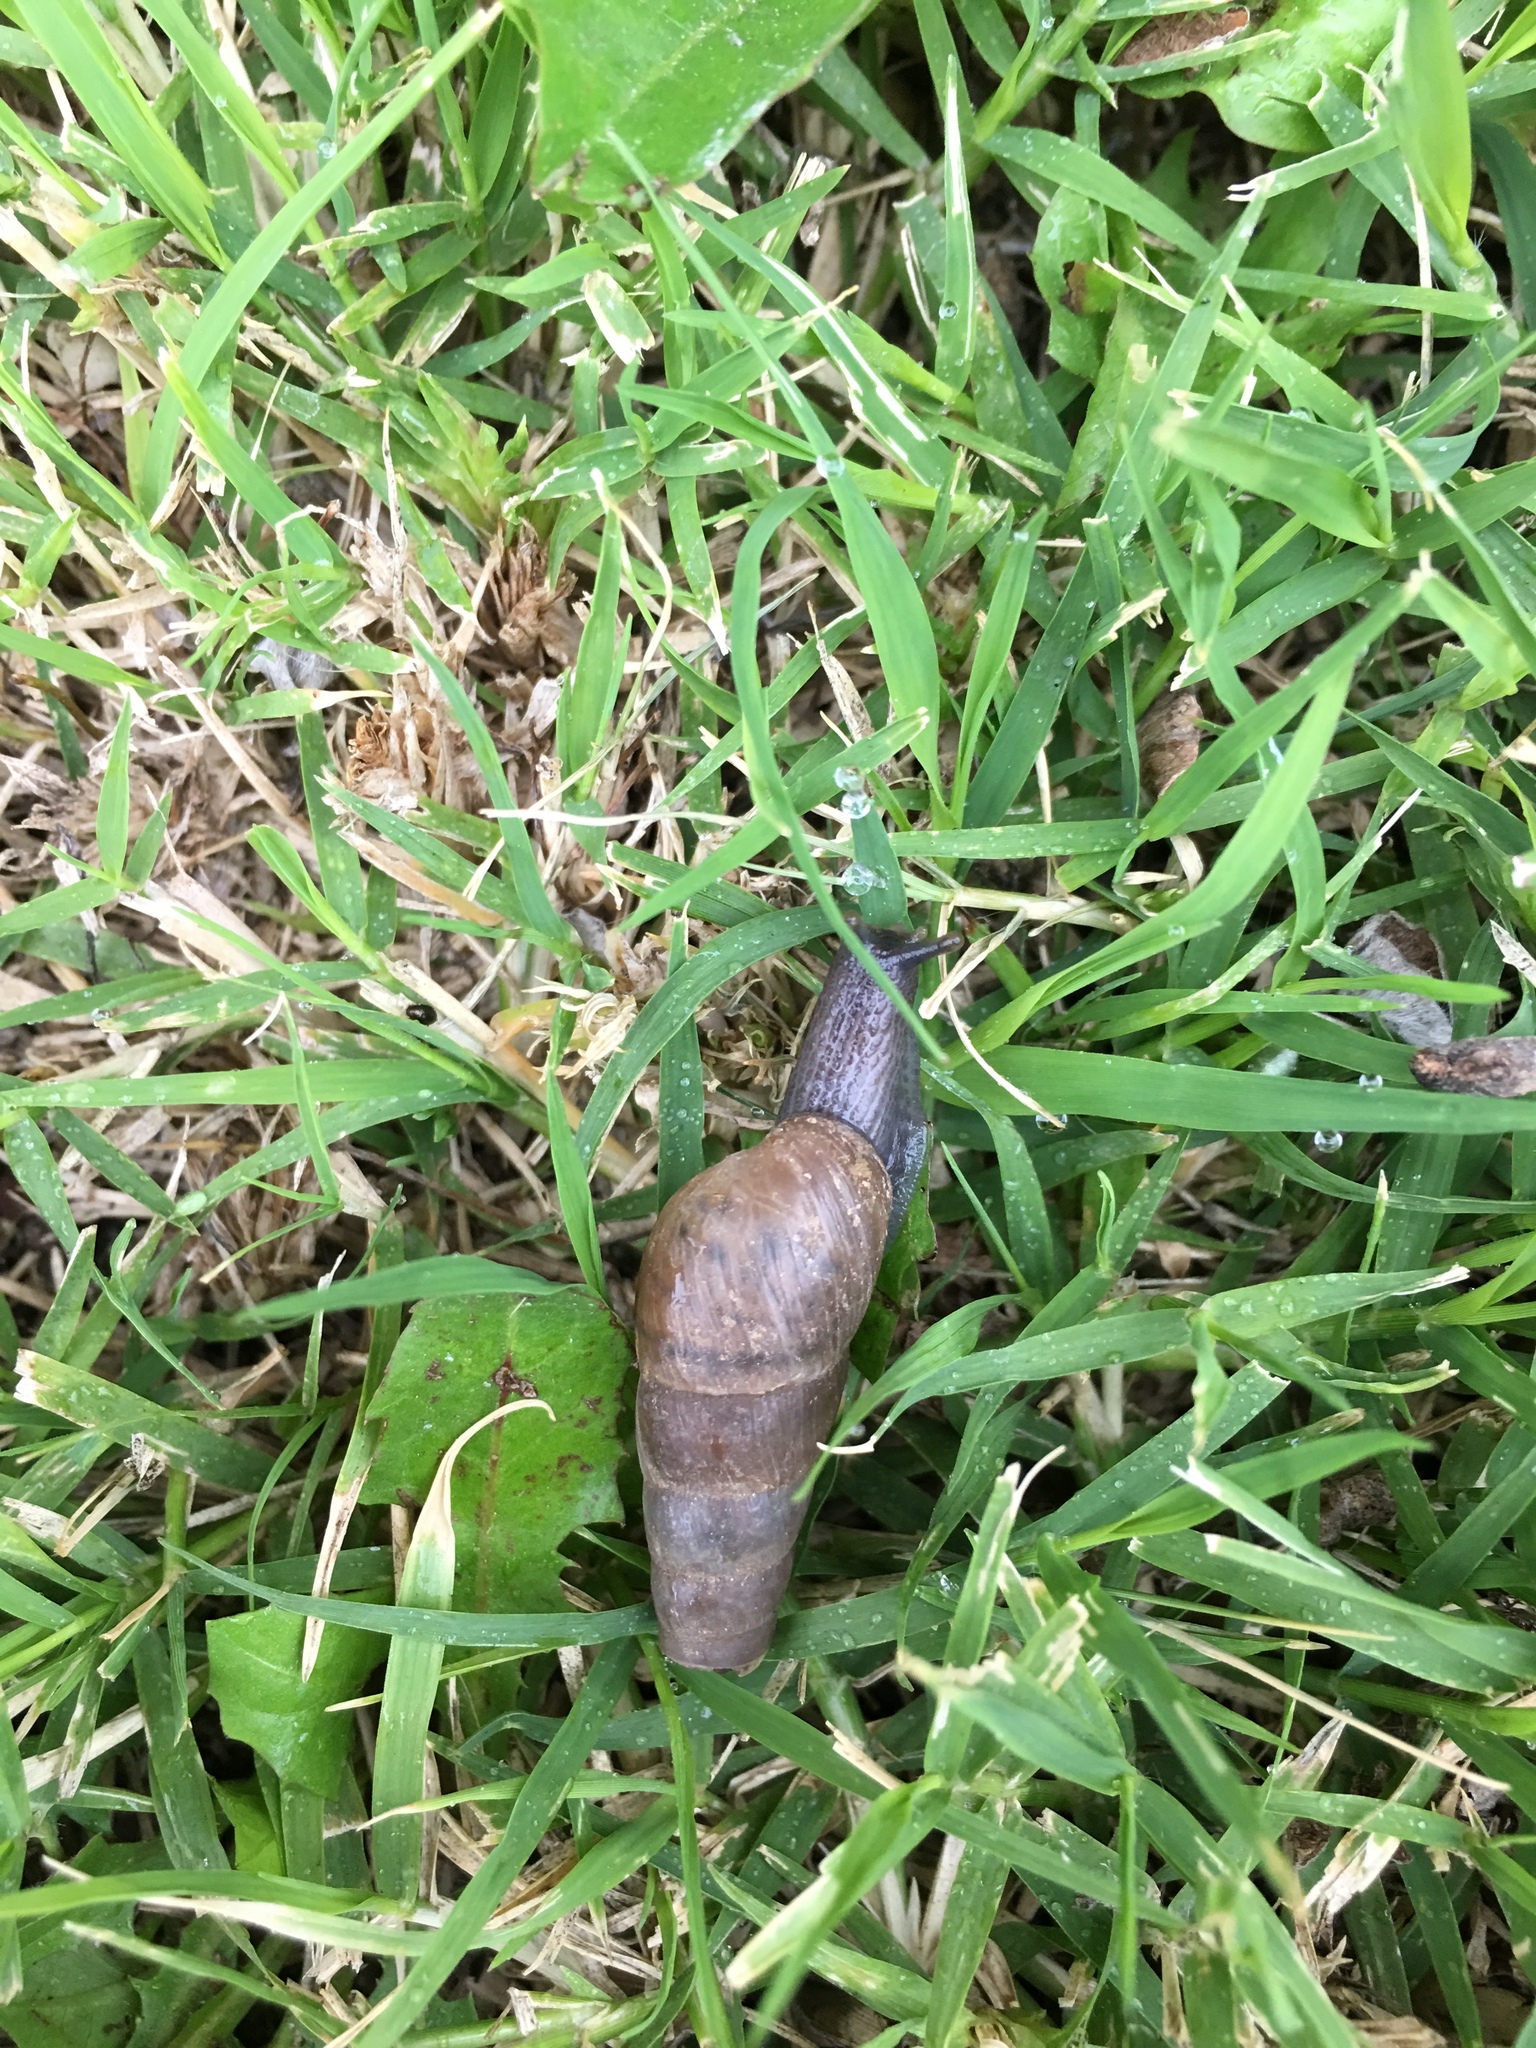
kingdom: Animalia
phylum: Mollusca
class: Gastropoda
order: Stylommatophora
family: Achatinidae
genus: Rumina
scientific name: Rumina decollata
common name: Decollate snail
